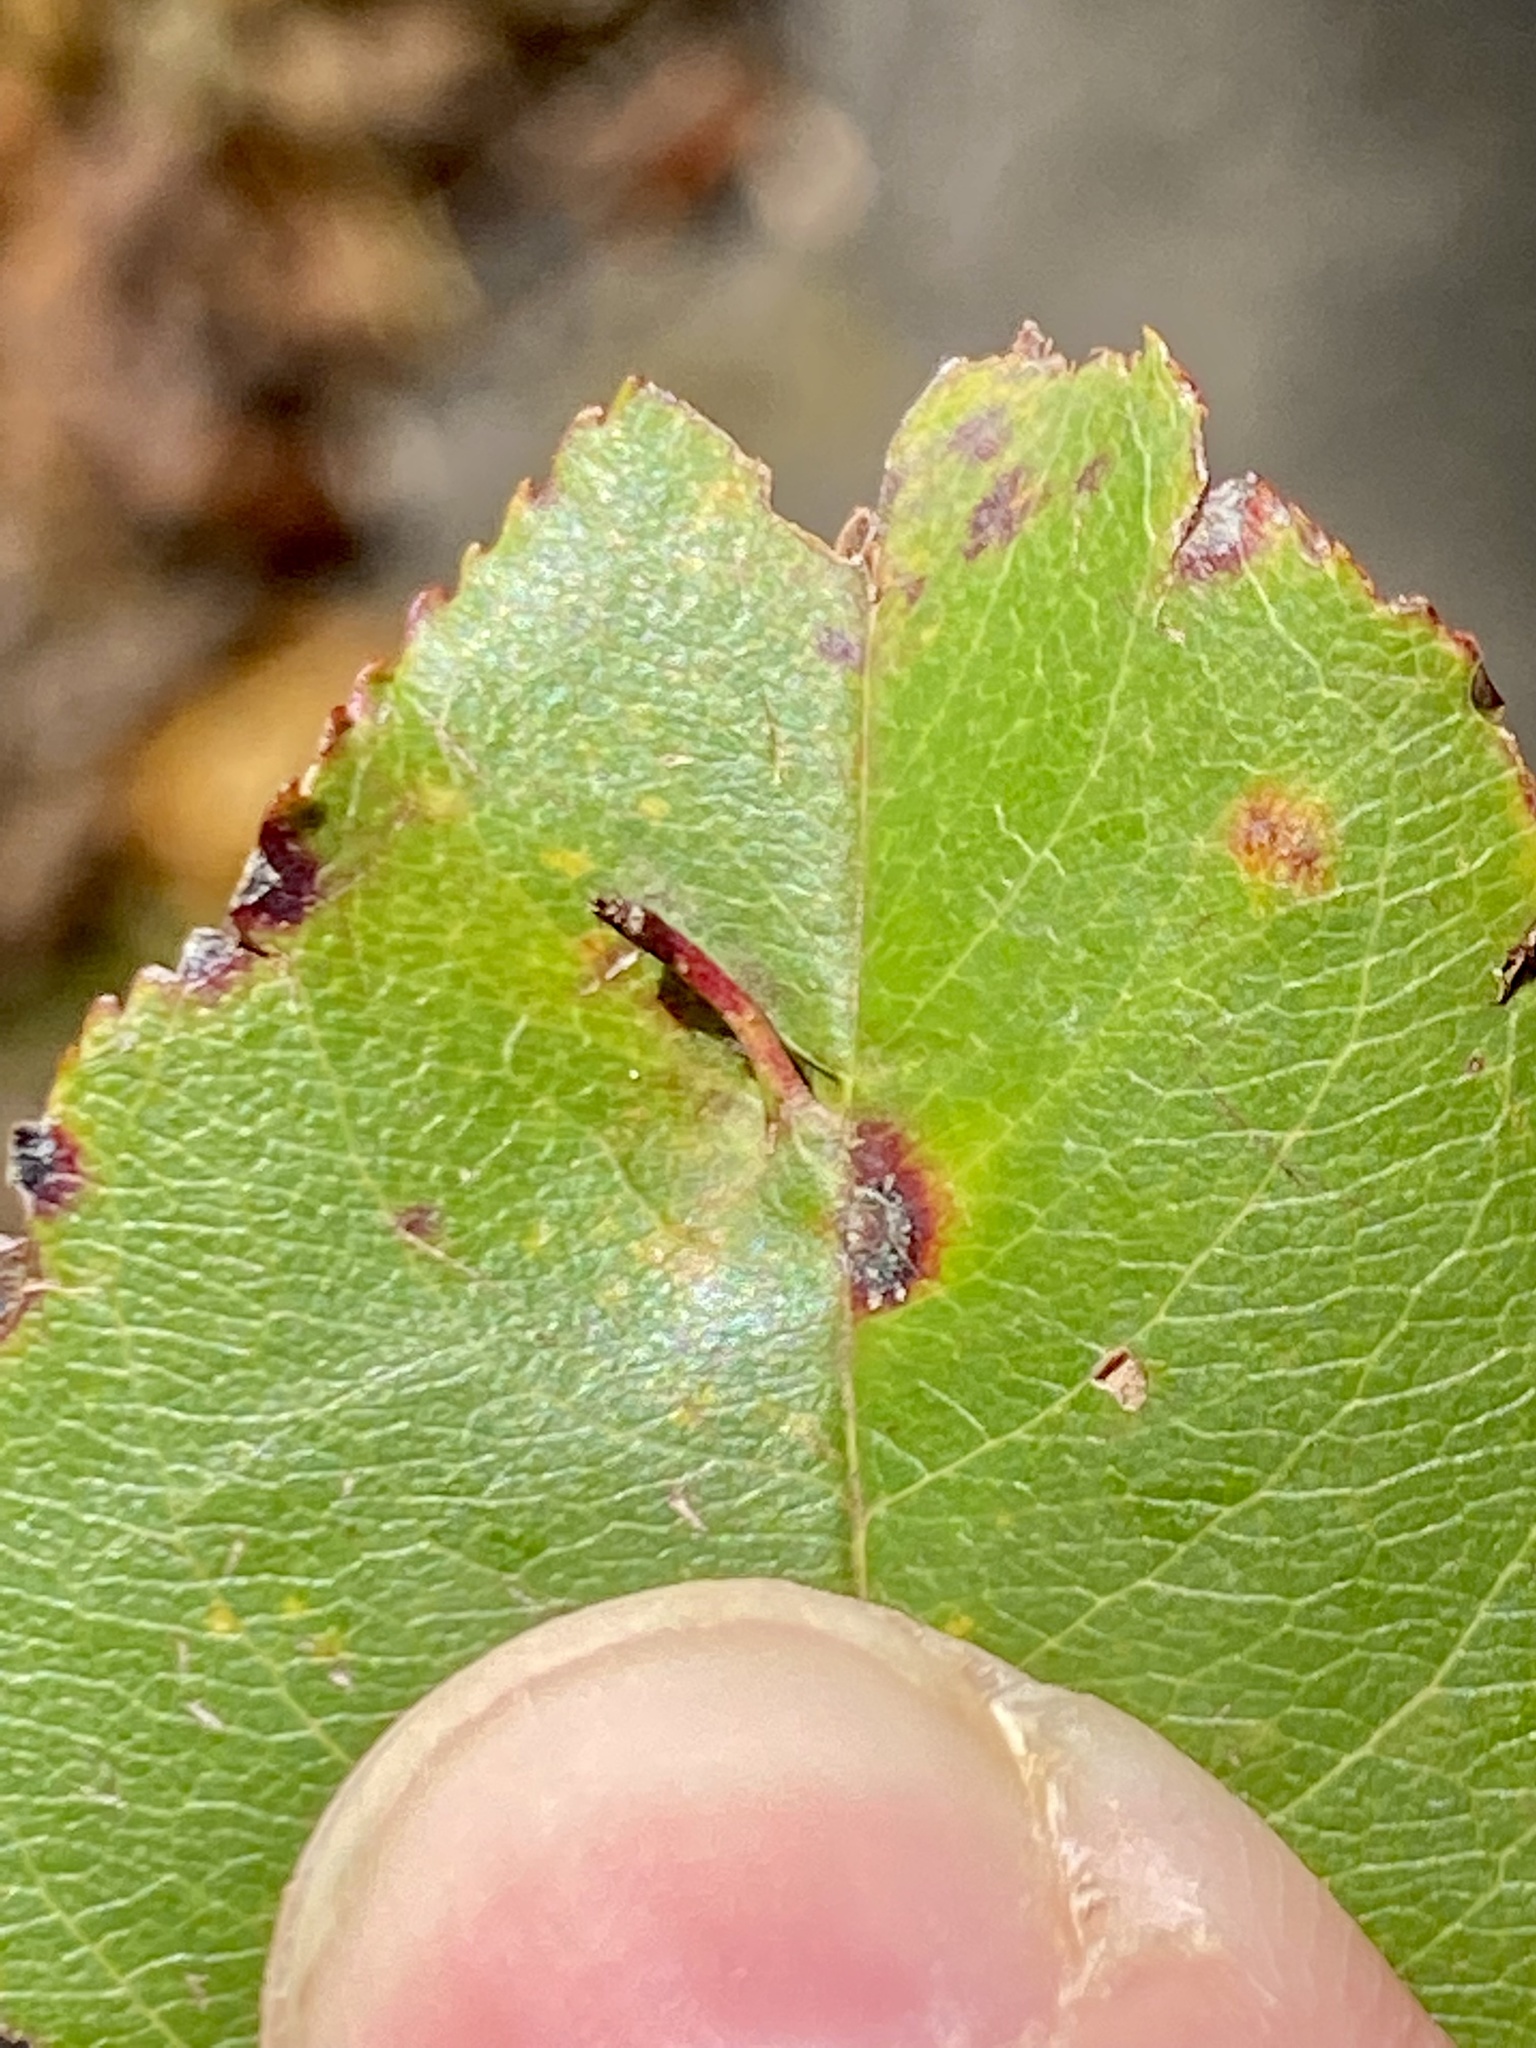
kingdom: Animalia
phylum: Arthropoda
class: Arachnida
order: Trombidiformes
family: Eriophyidae
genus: Eriophyes
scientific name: Eriophyes
